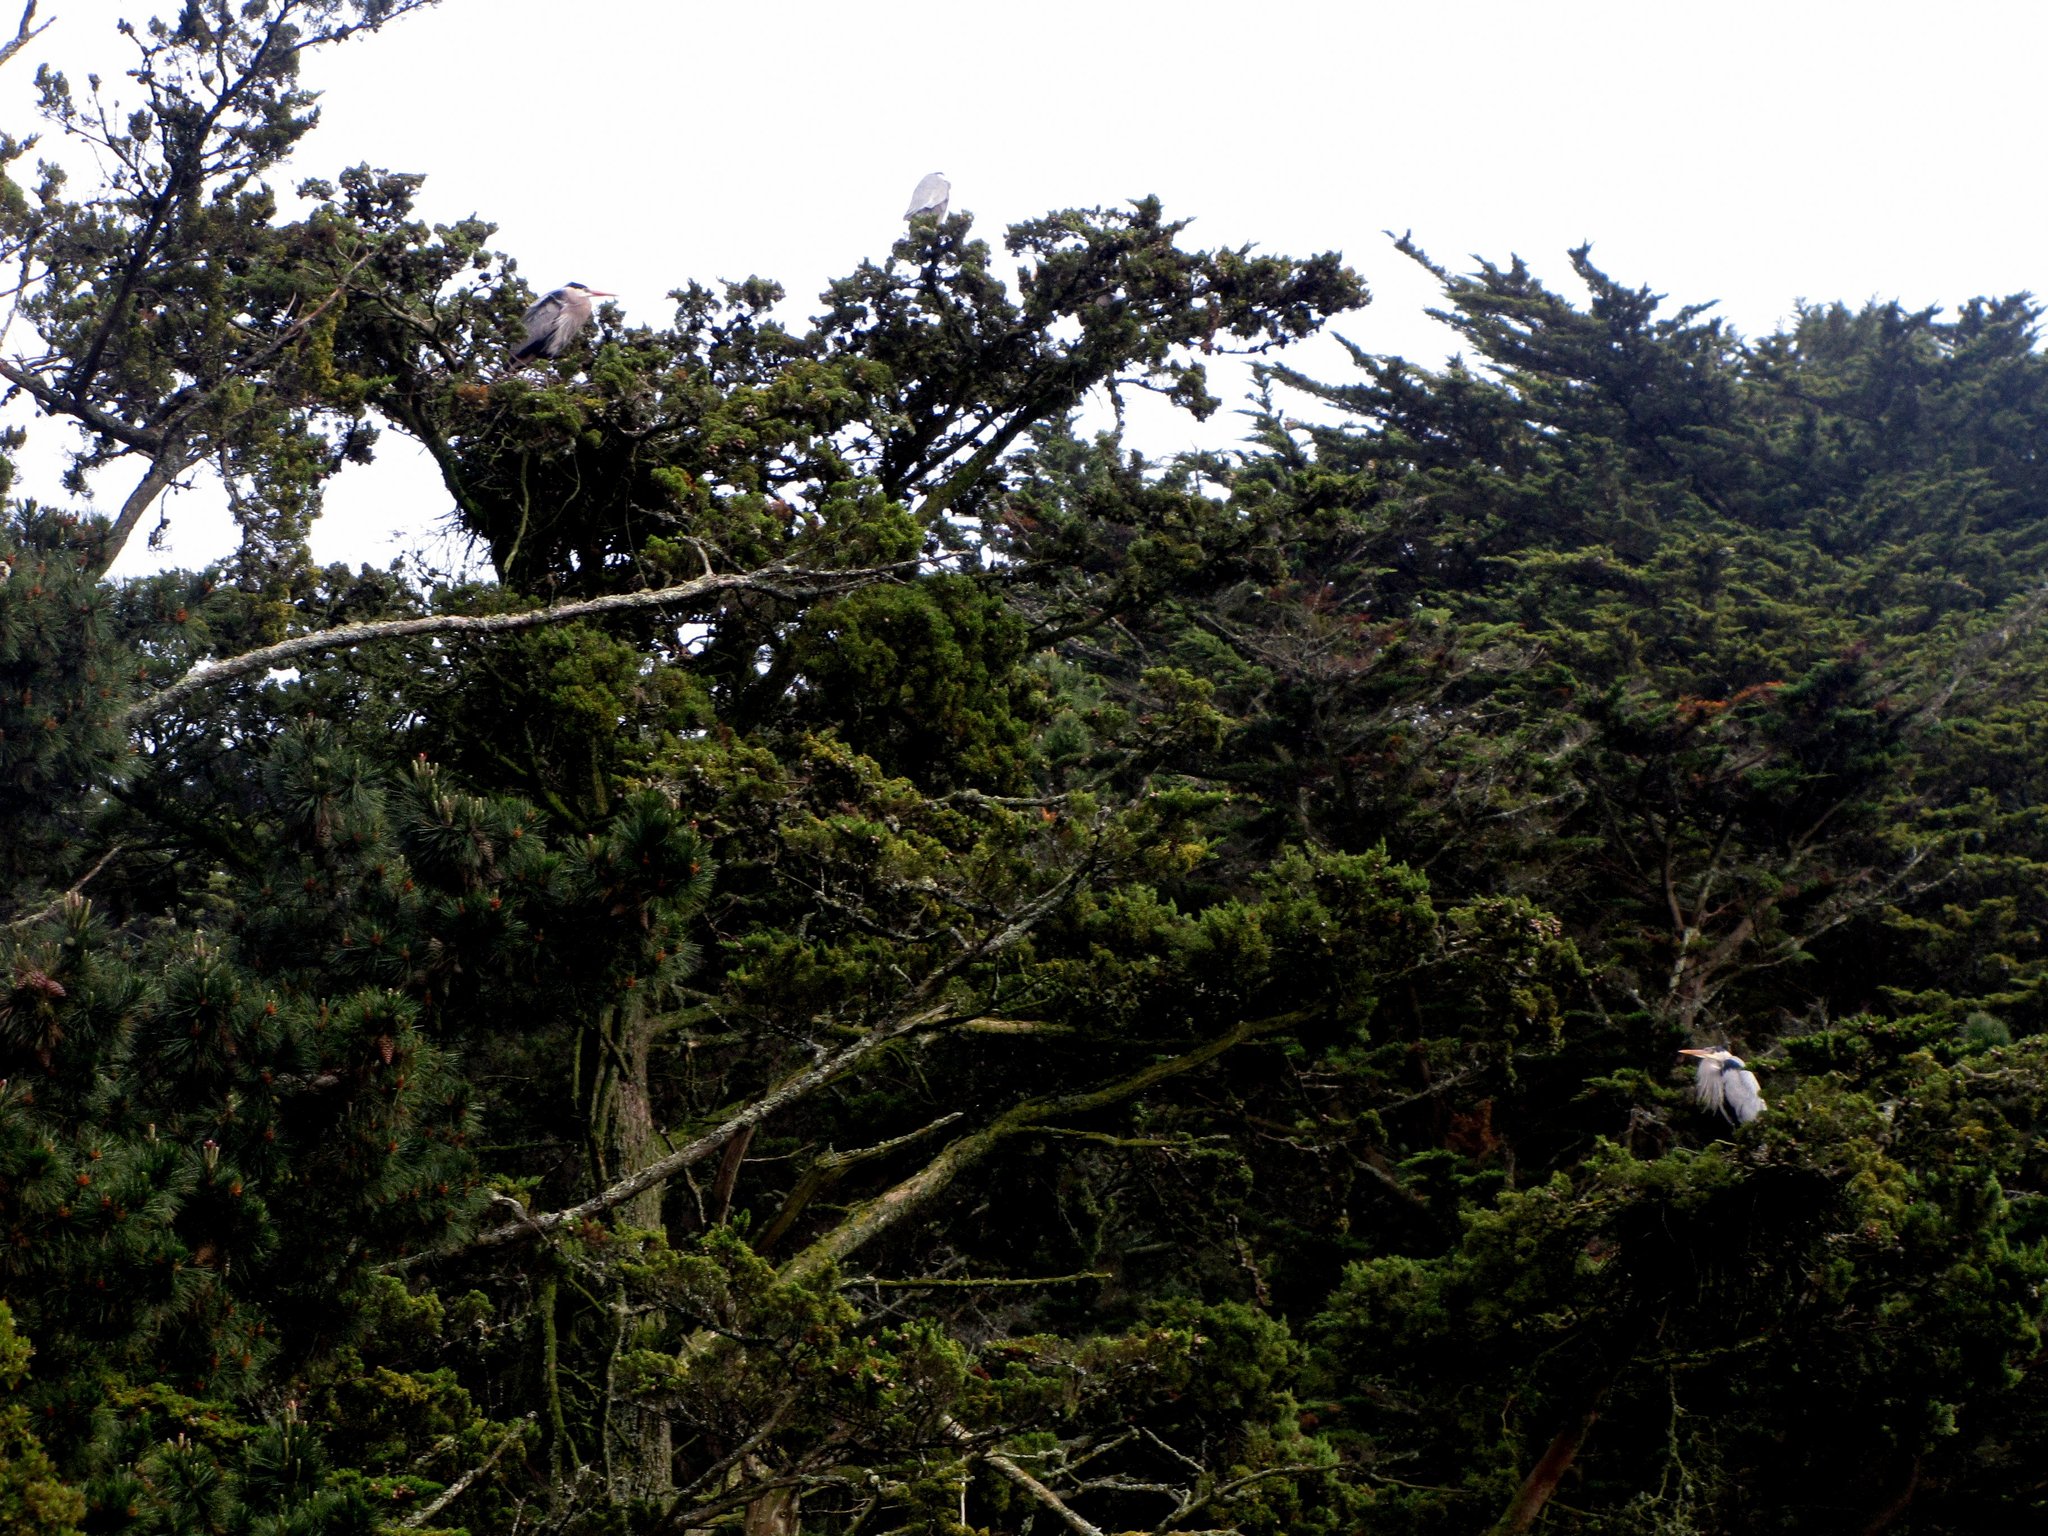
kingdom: Animalia
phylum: Chordata
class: Aves
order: Pelecaniformes
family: Ardeidae
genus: Ardea
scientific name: Ardea herodias
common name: Great blue heron
